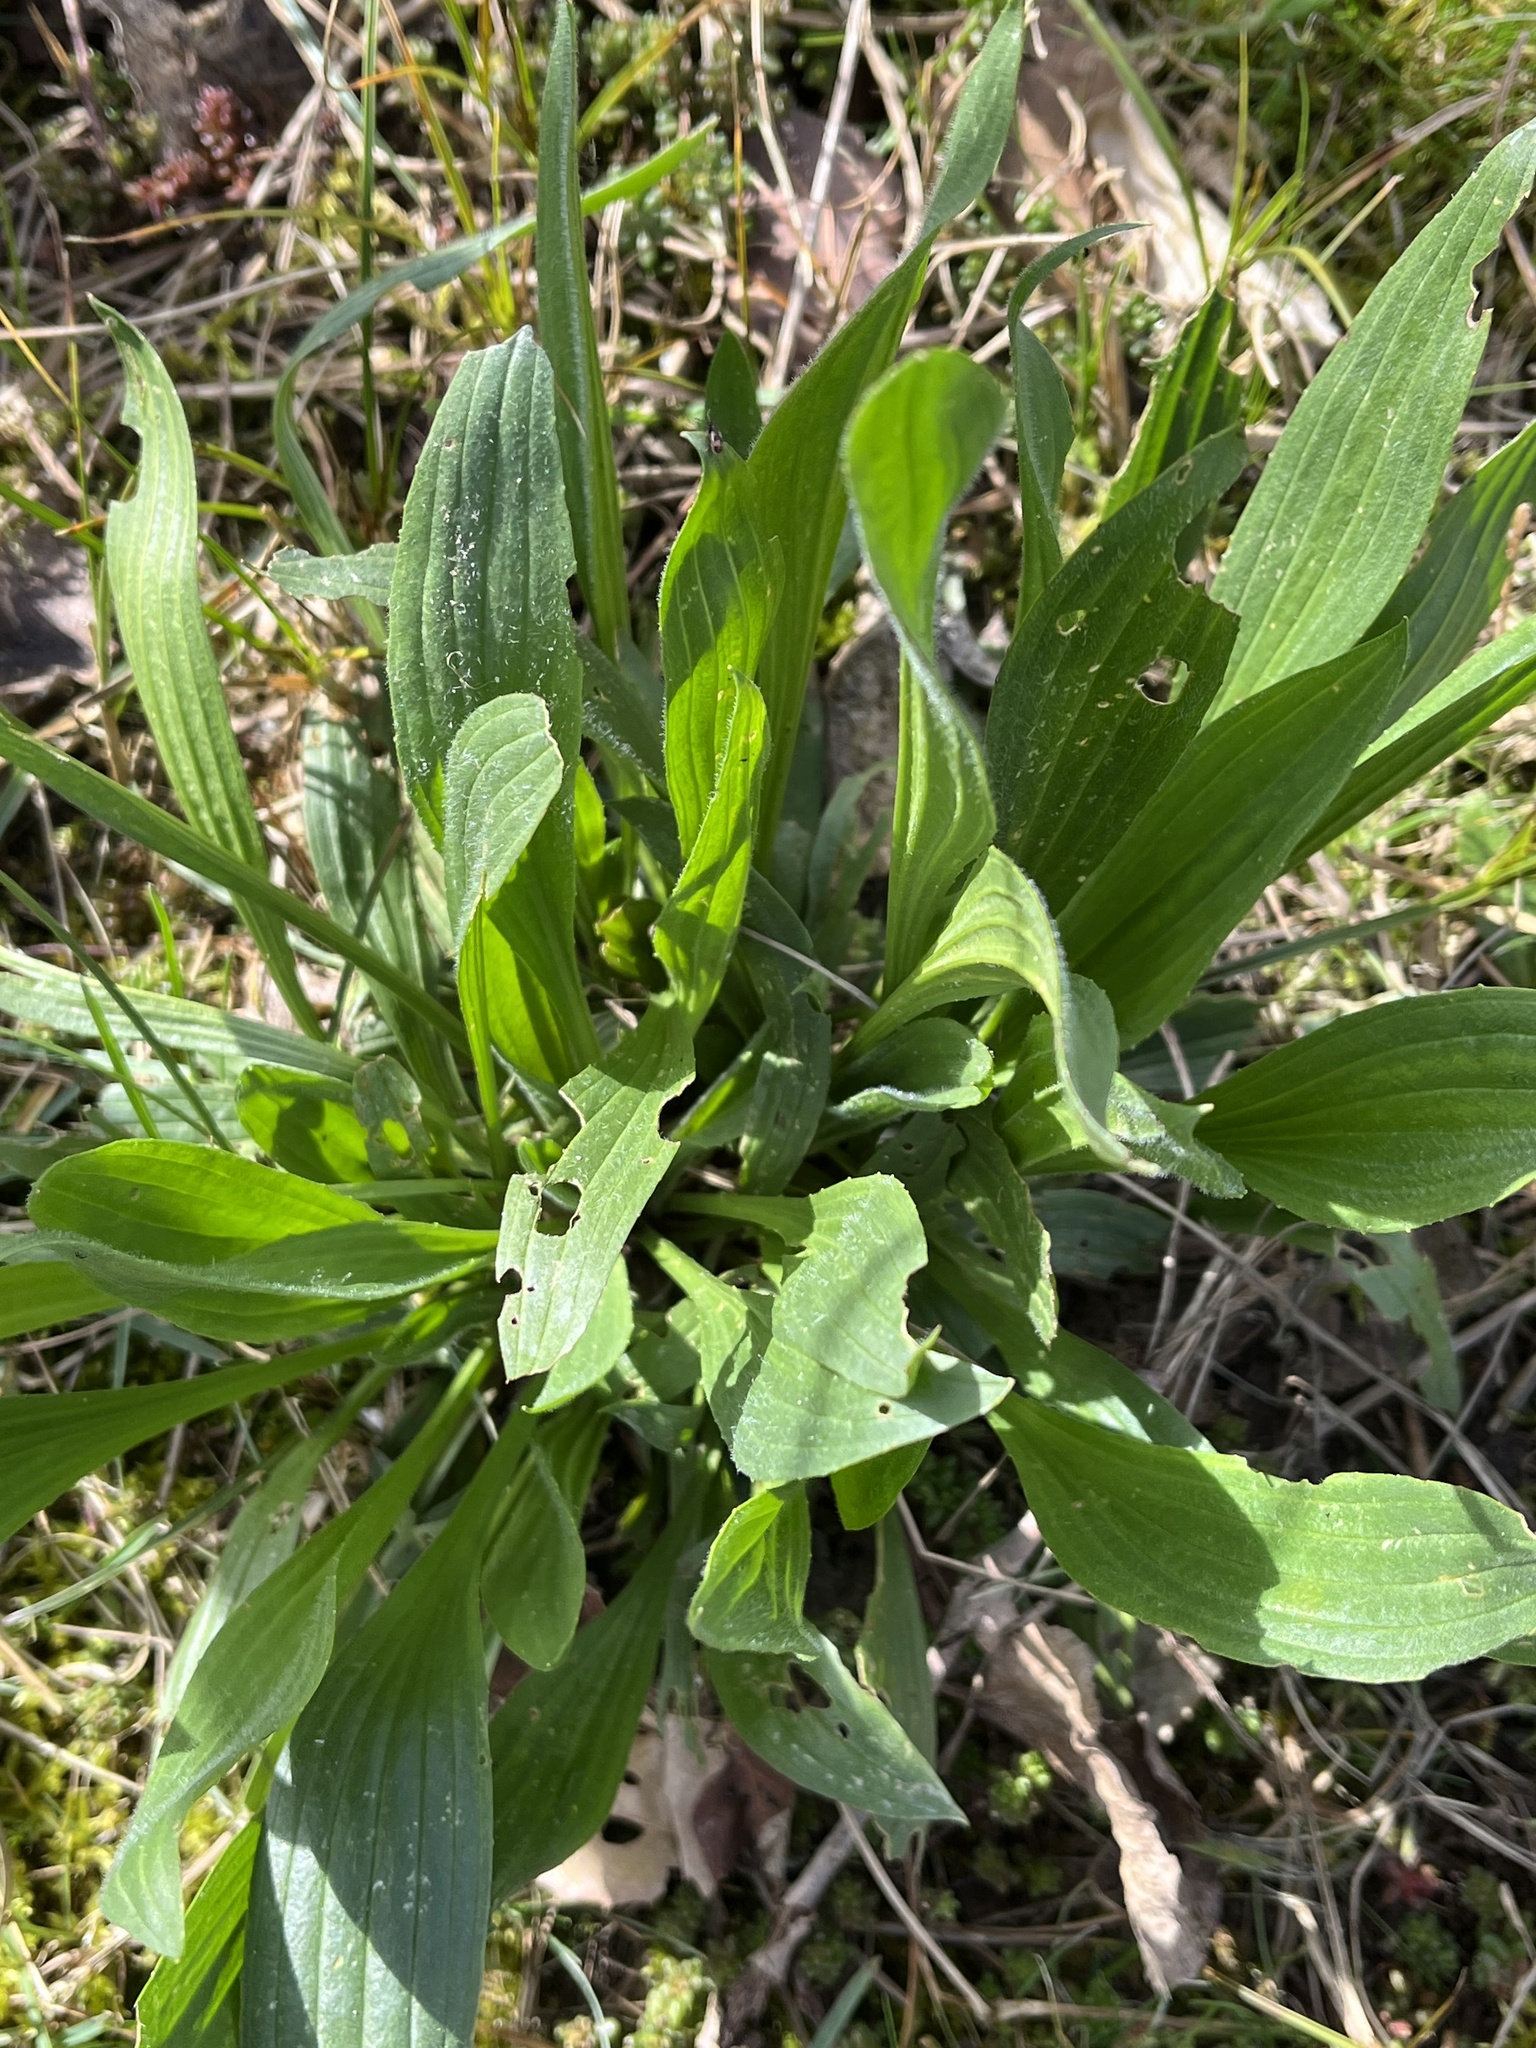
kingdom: Plantae
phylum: Tracheophyta
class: Magnoliopsida
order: Lamiales
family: Plantaginaceae
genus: Plantago
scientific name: Plantago lanceolata
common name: Ribwort plantain
